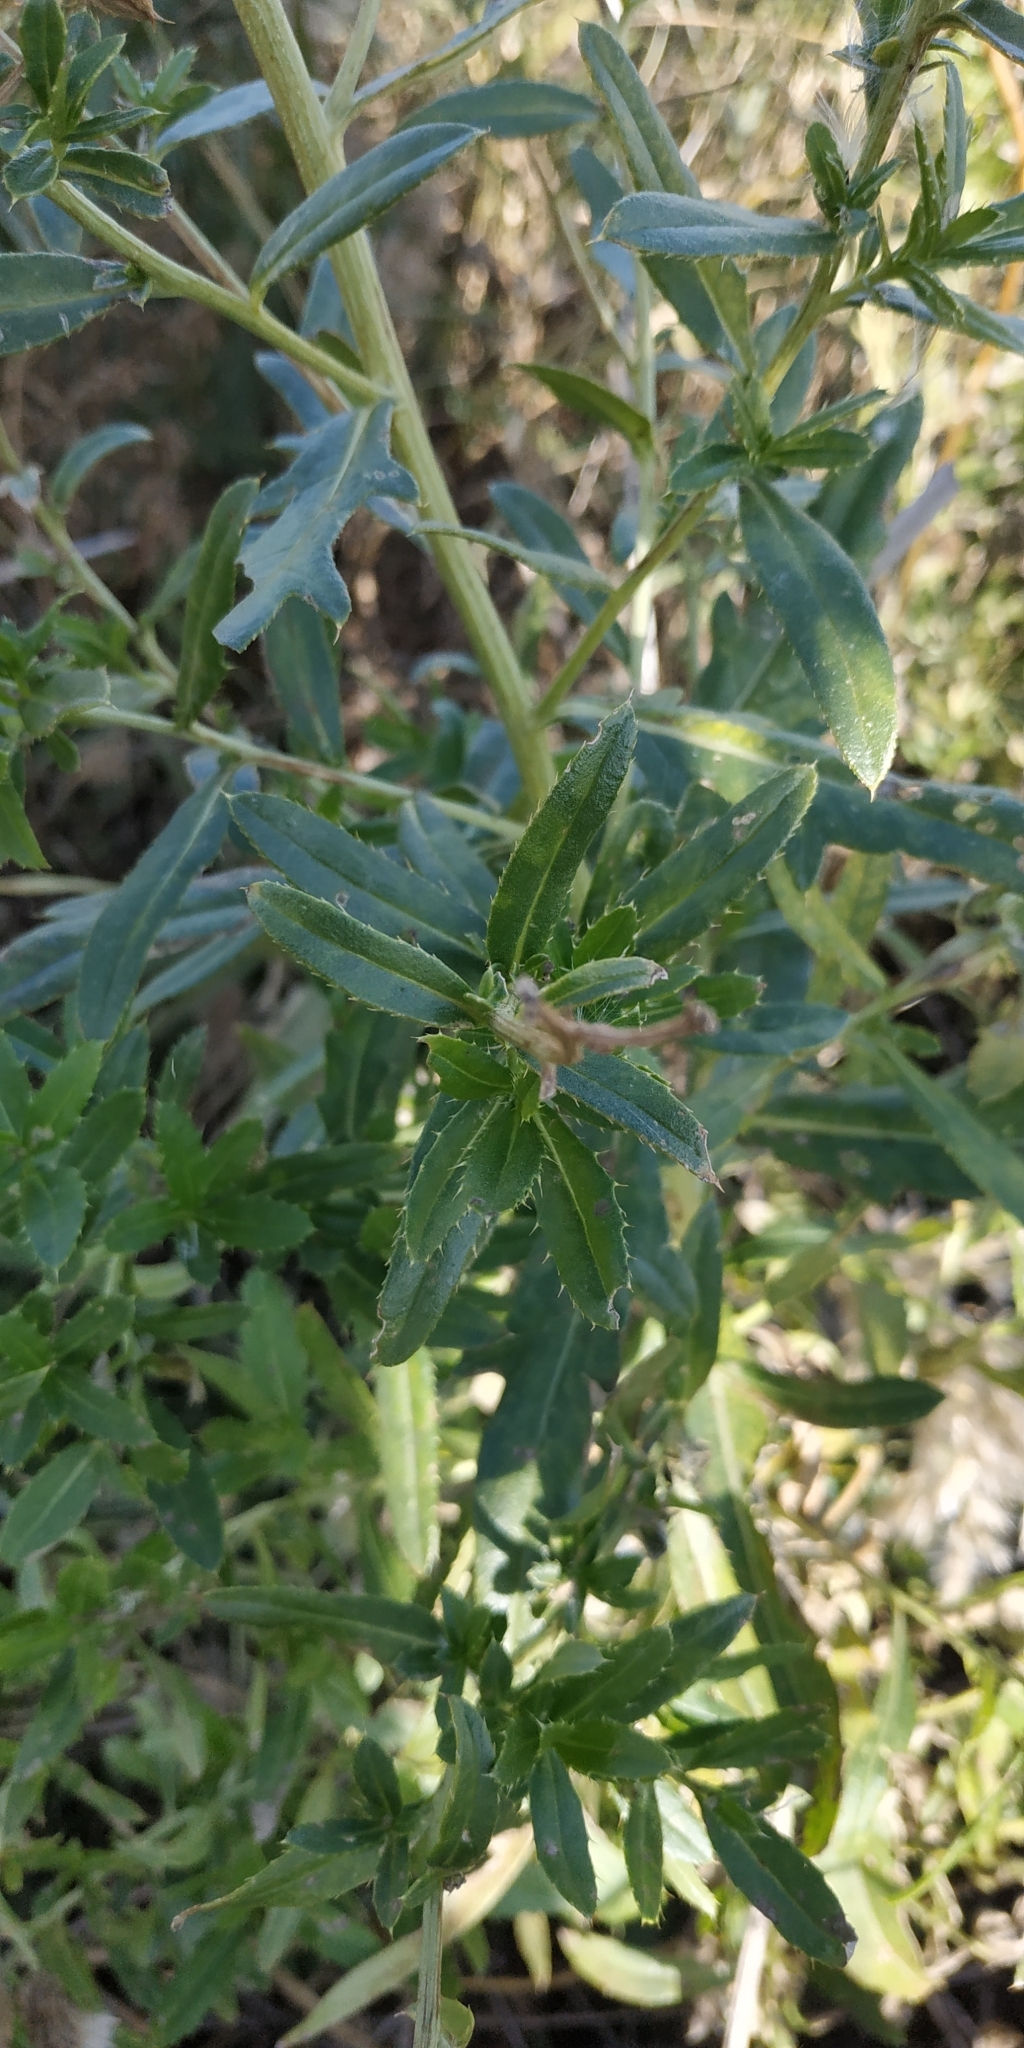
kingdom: Plantae
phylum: Tracheophyta
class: Magnoliopsida
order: Asterales
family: Asteraceae
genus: Cirsium
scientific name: Cirsium arvense
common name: Creeping thistle
